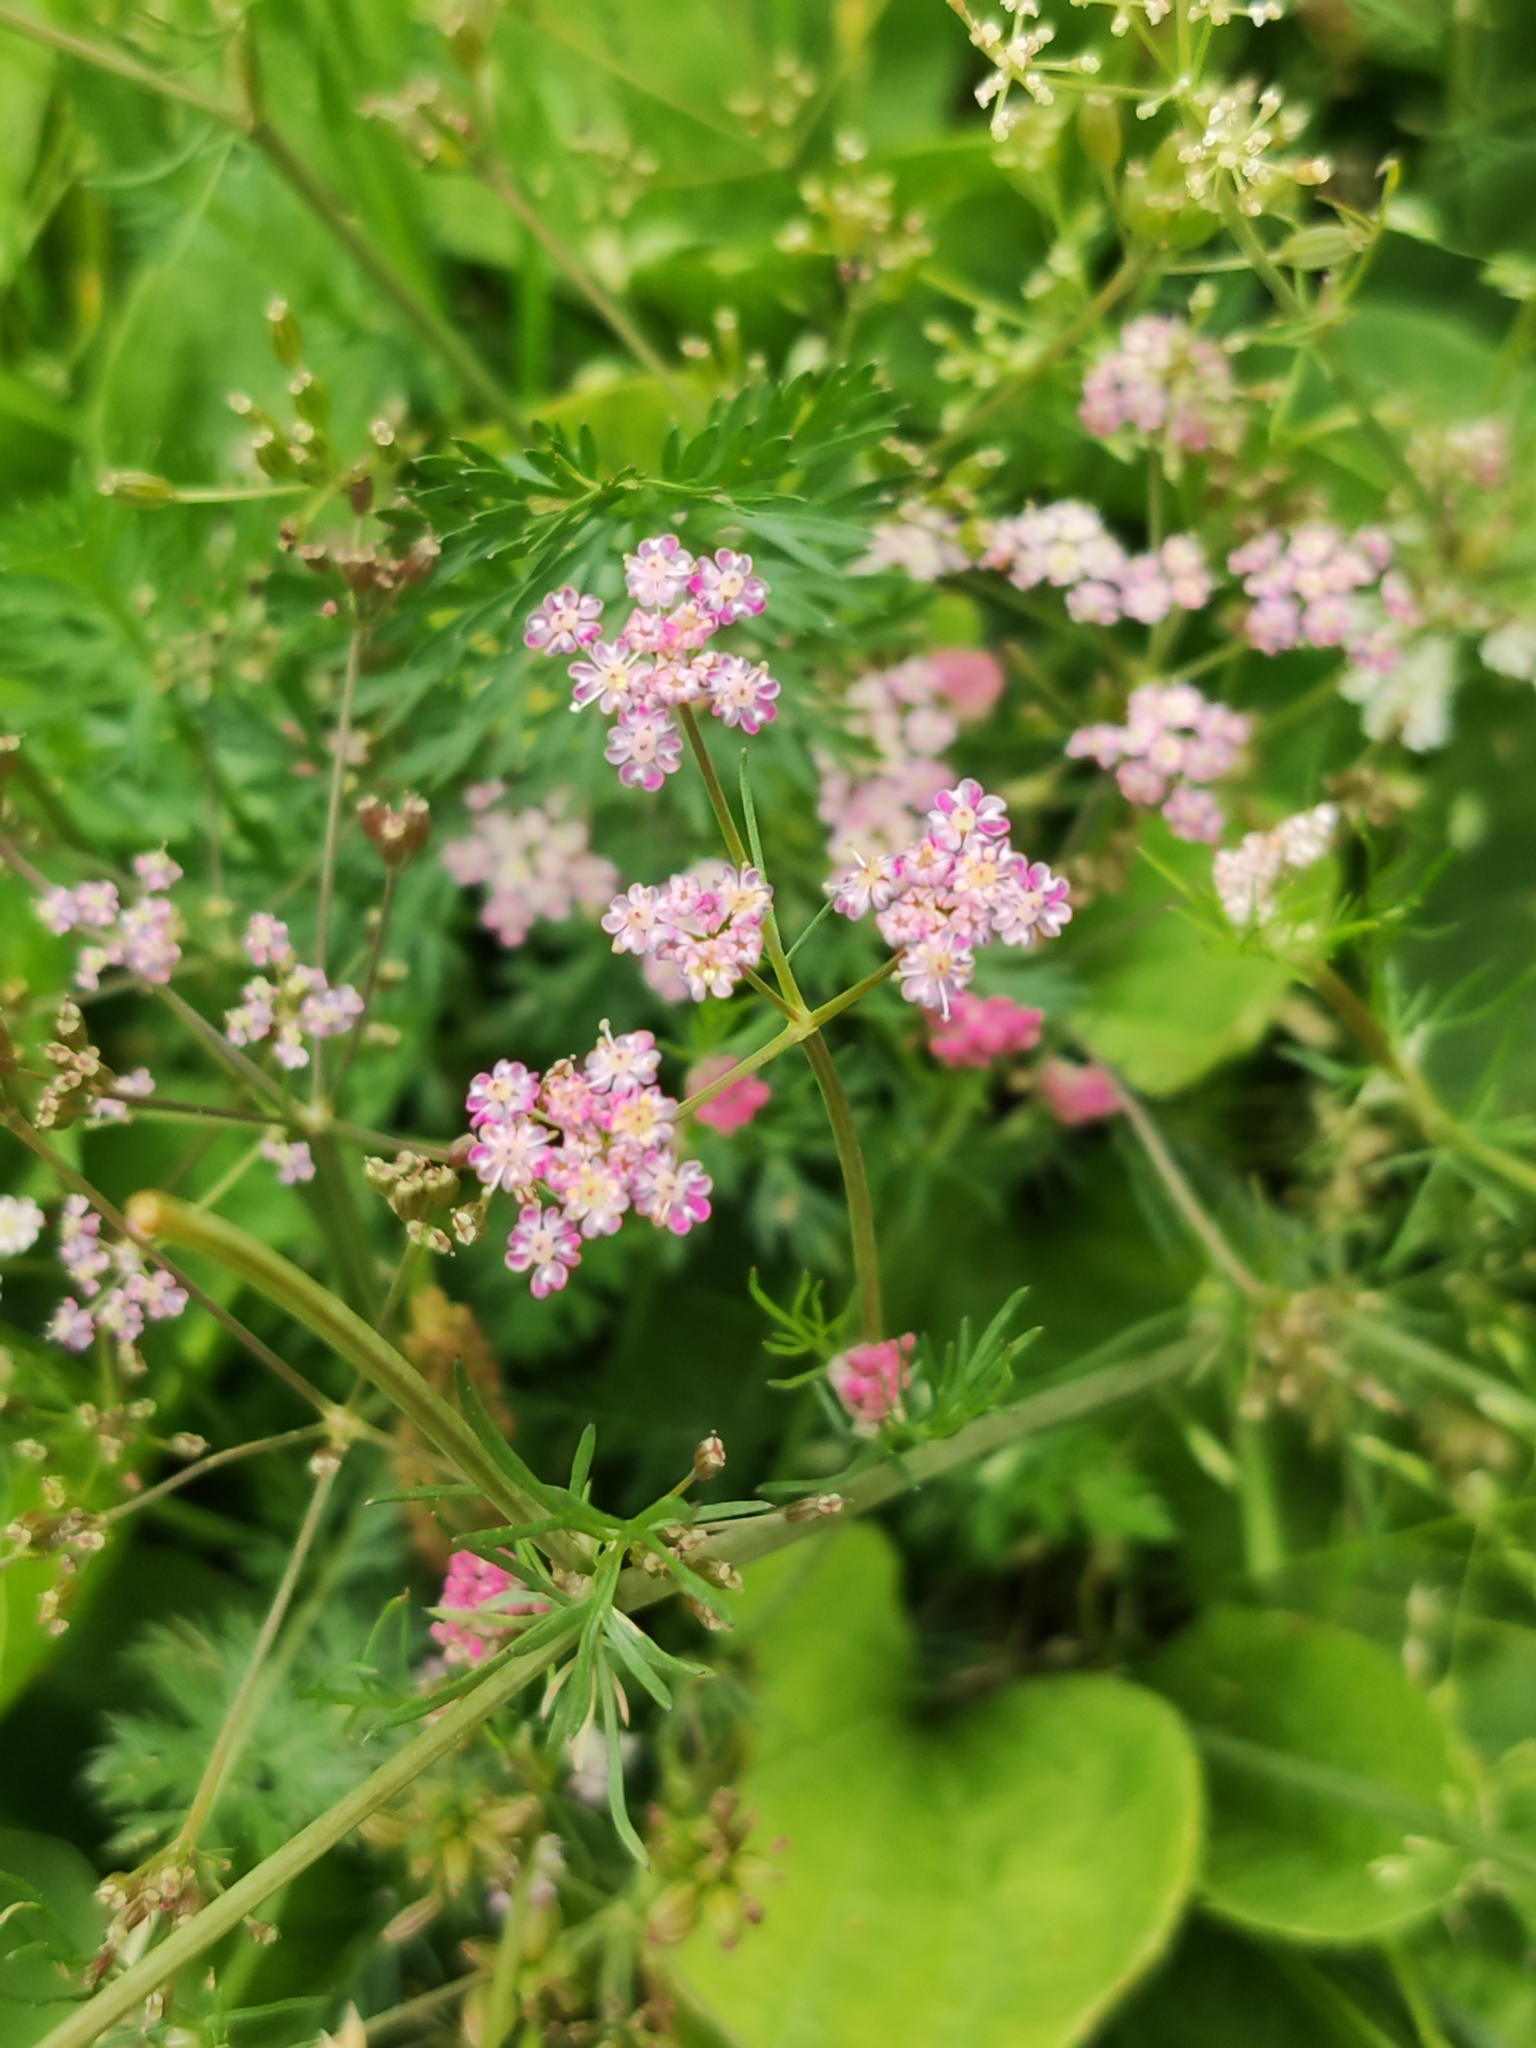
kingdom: Plantae
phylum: Tracheophyta
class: Magnoliopsida
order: Apiales
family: Apiaceae
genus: Carum
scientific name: Carum carvi
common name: Caraway
